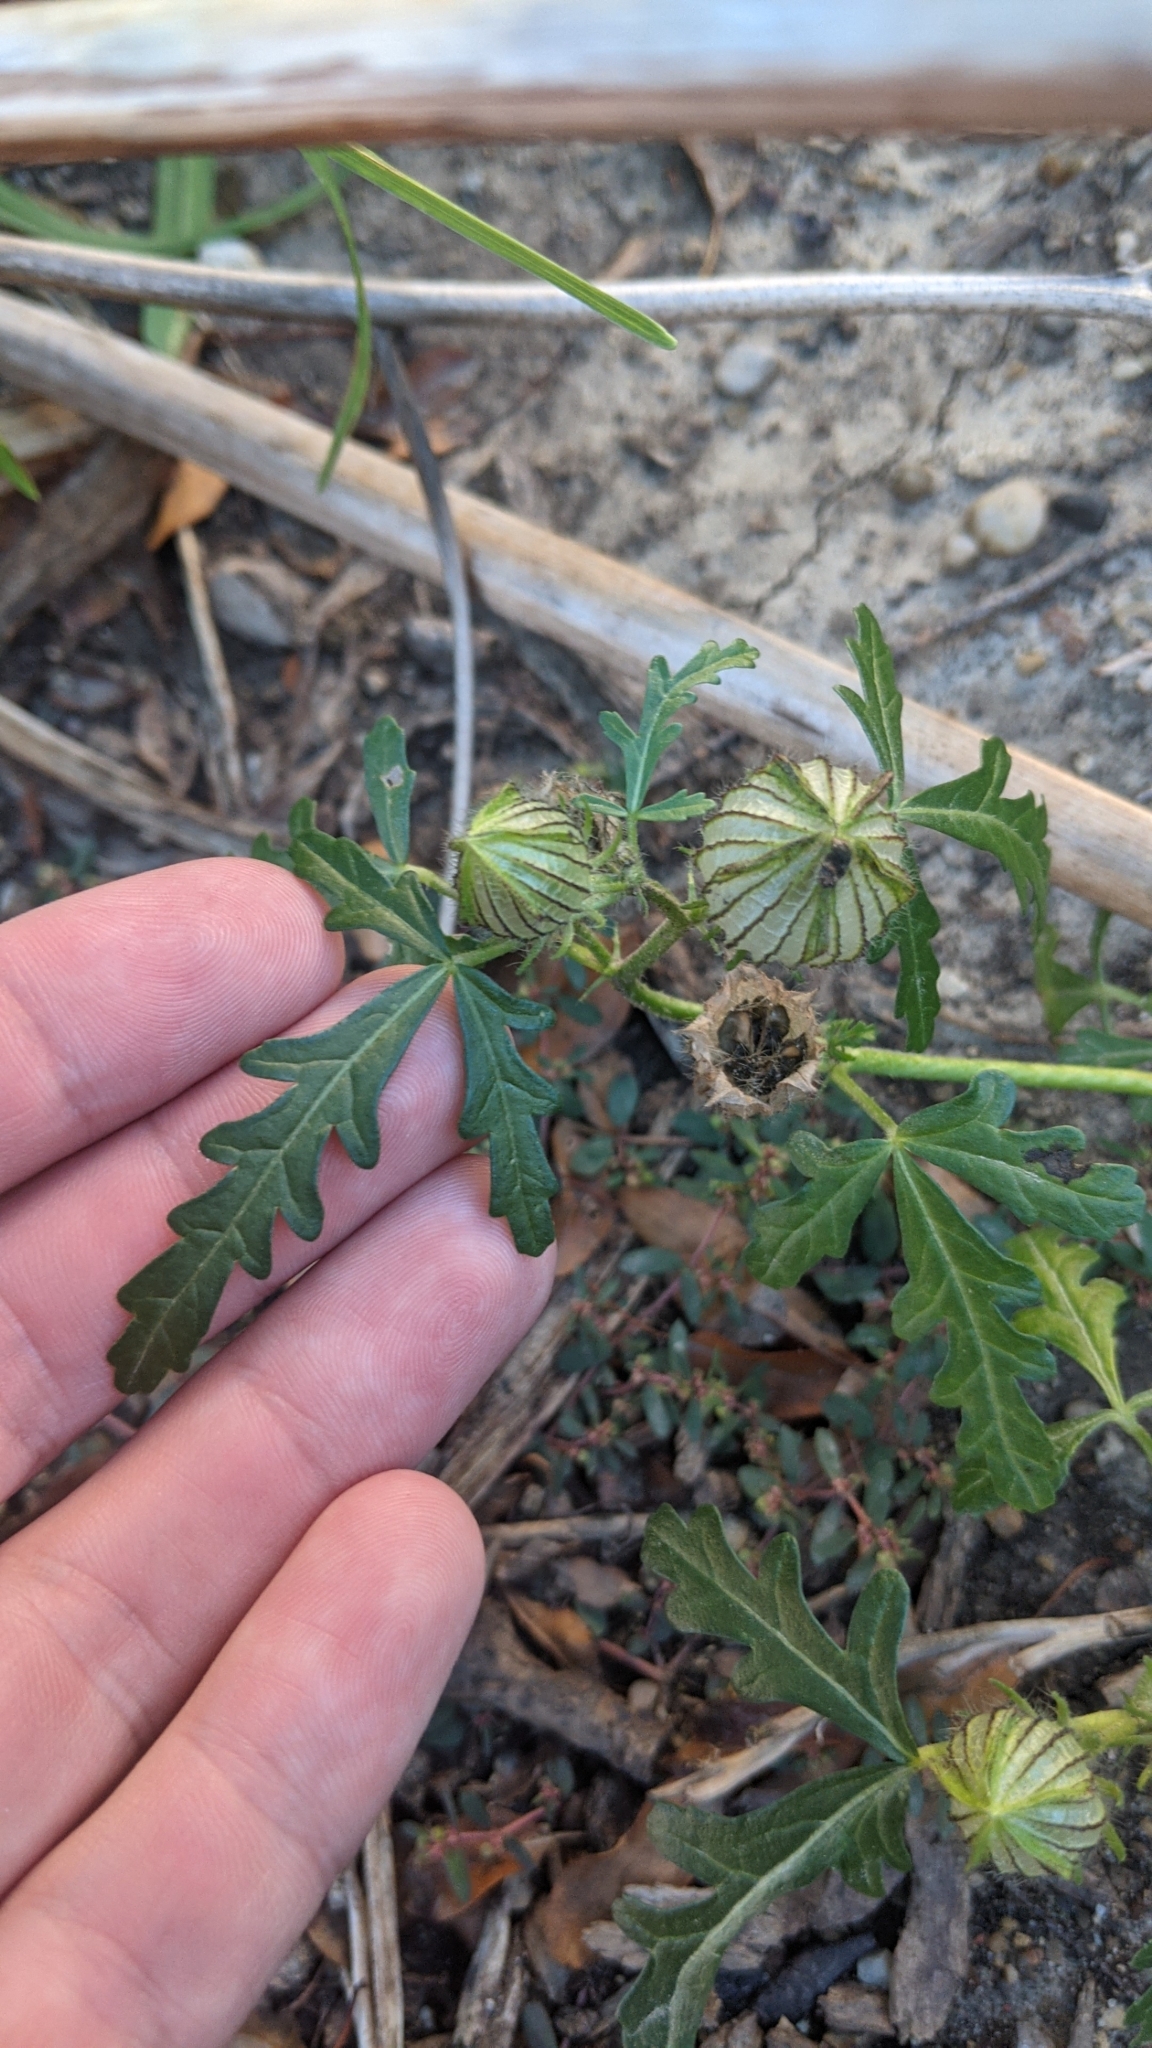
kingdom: Plantae
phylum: Tracheophyta
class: Magnoliopsida
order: Malvales
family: Malvaceae
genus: Hibiscus
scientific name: Hibiscus trionum
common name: Bladder ketmia
